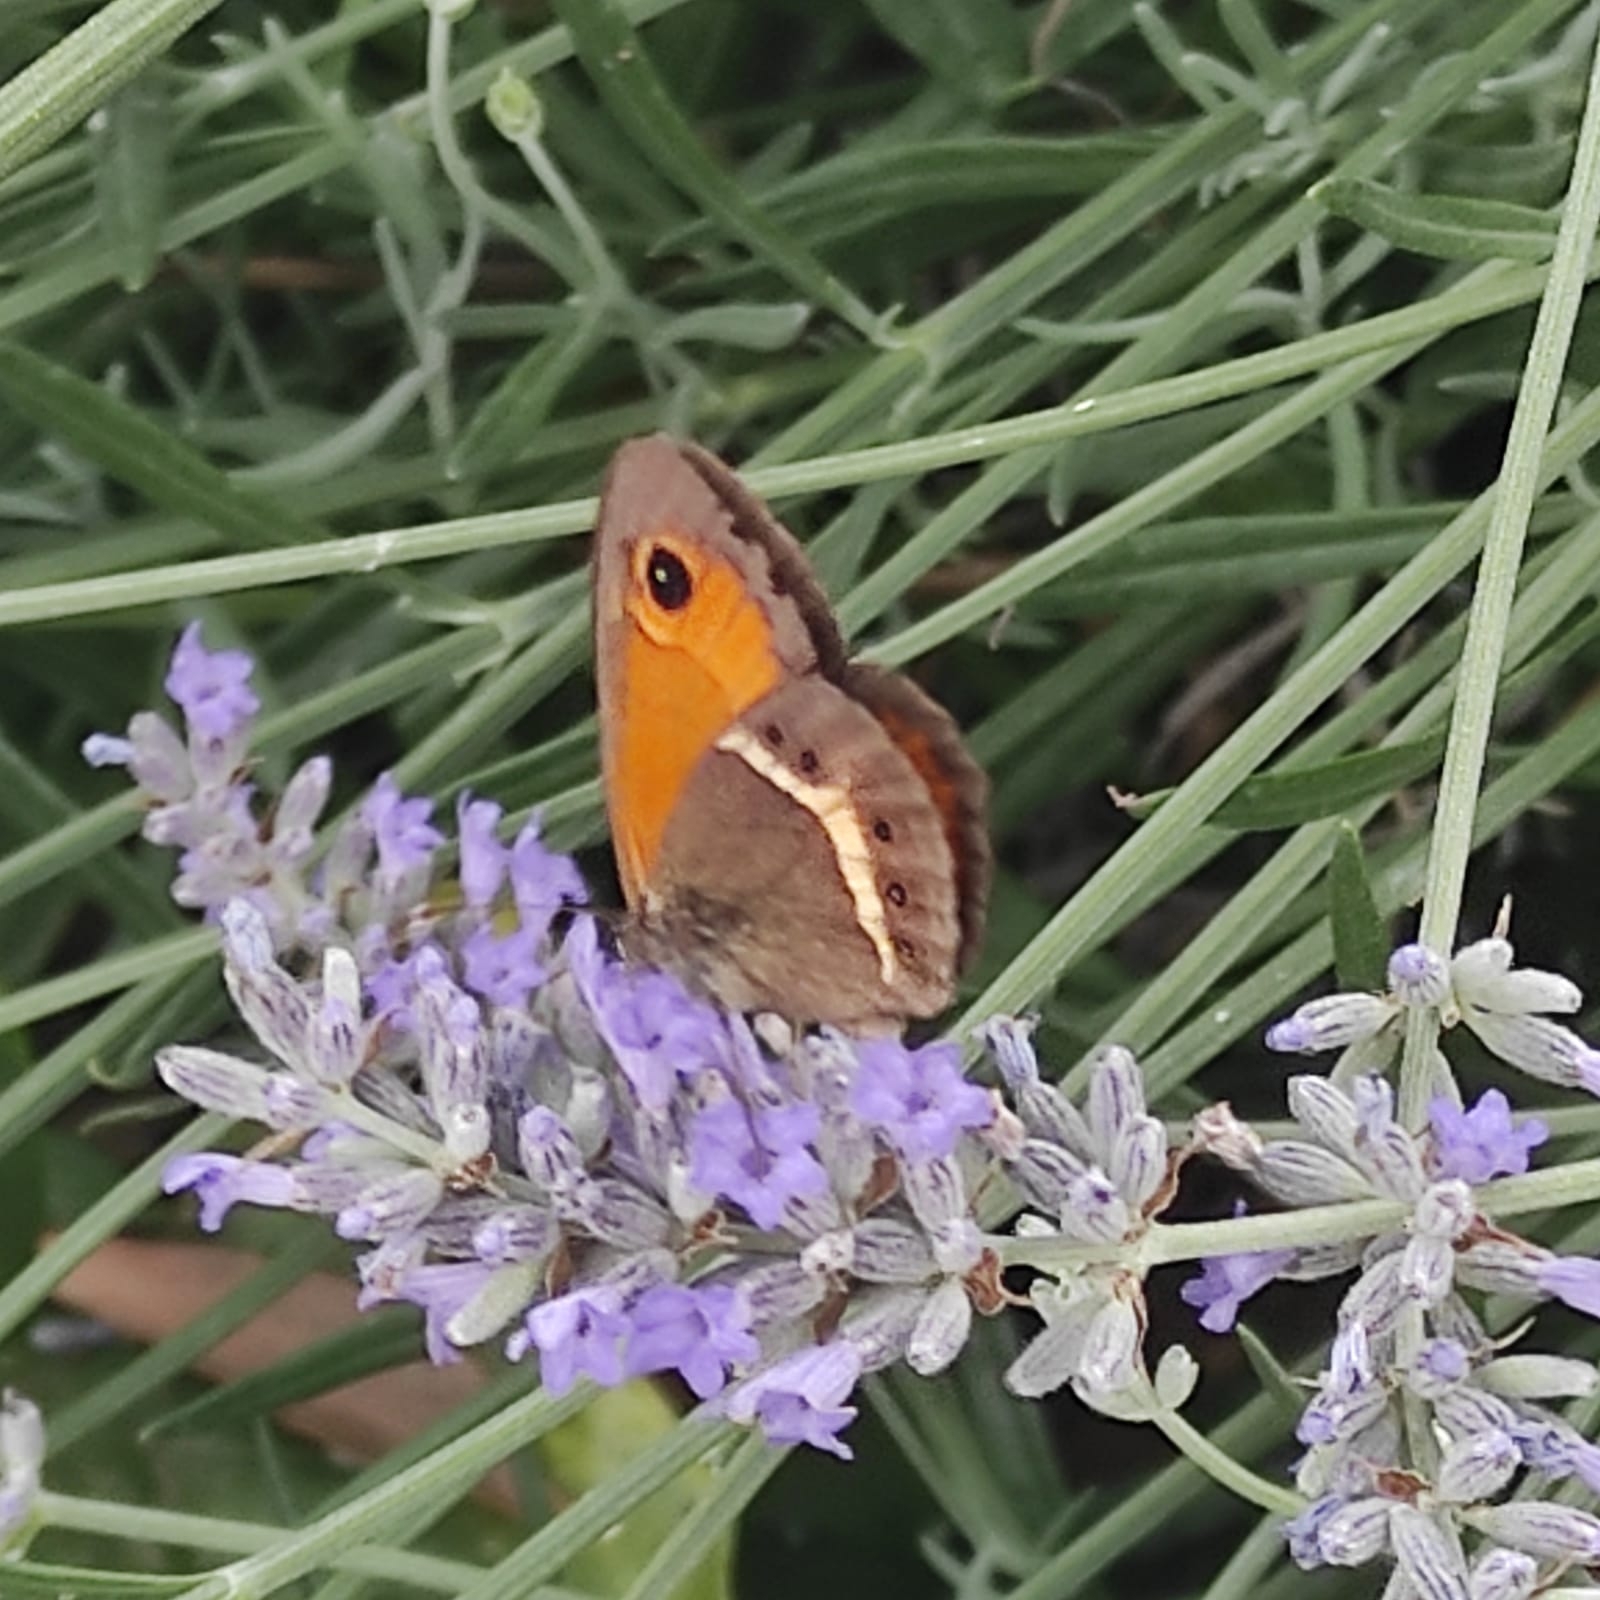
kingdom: Animalia
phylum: Arthropoda
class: Insecta
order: Lepidoptera
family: Nymphalidae
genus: Pyronia
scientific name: Pyronia bathseba
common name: Spanish gatekeeper
